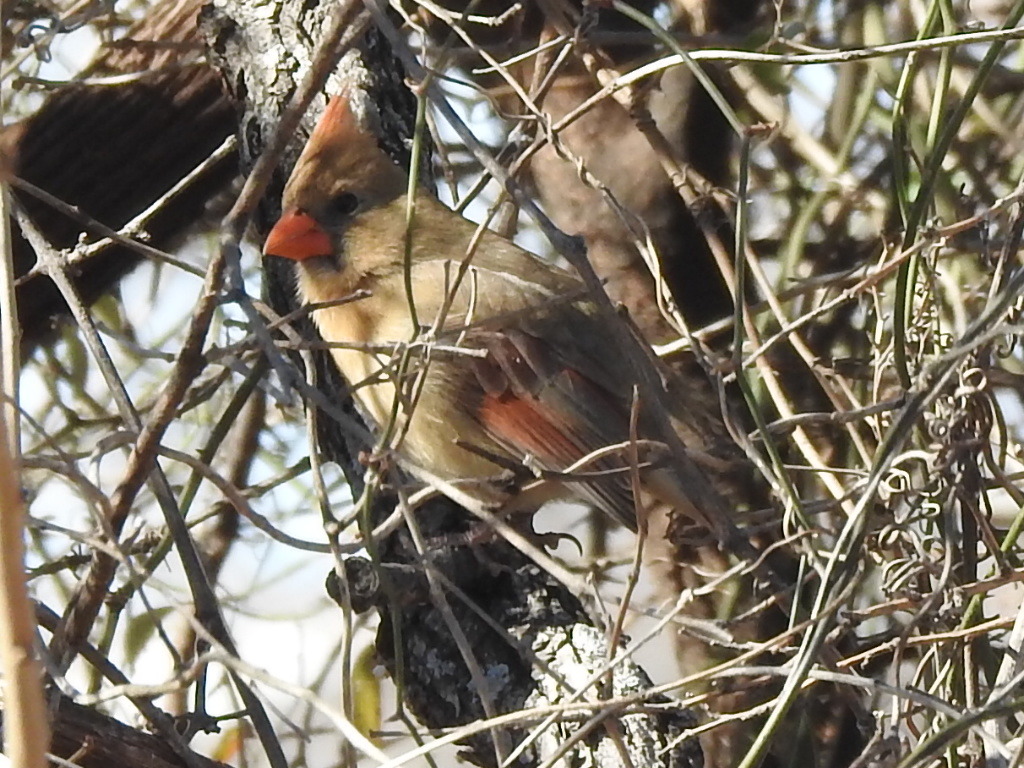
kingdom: Animalia
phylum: Chordata
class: Aves
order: Passeriformes
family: Cardinalidae
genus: Cardinalis
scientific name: Cardinalis cardinalis
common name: Northern cardinal
